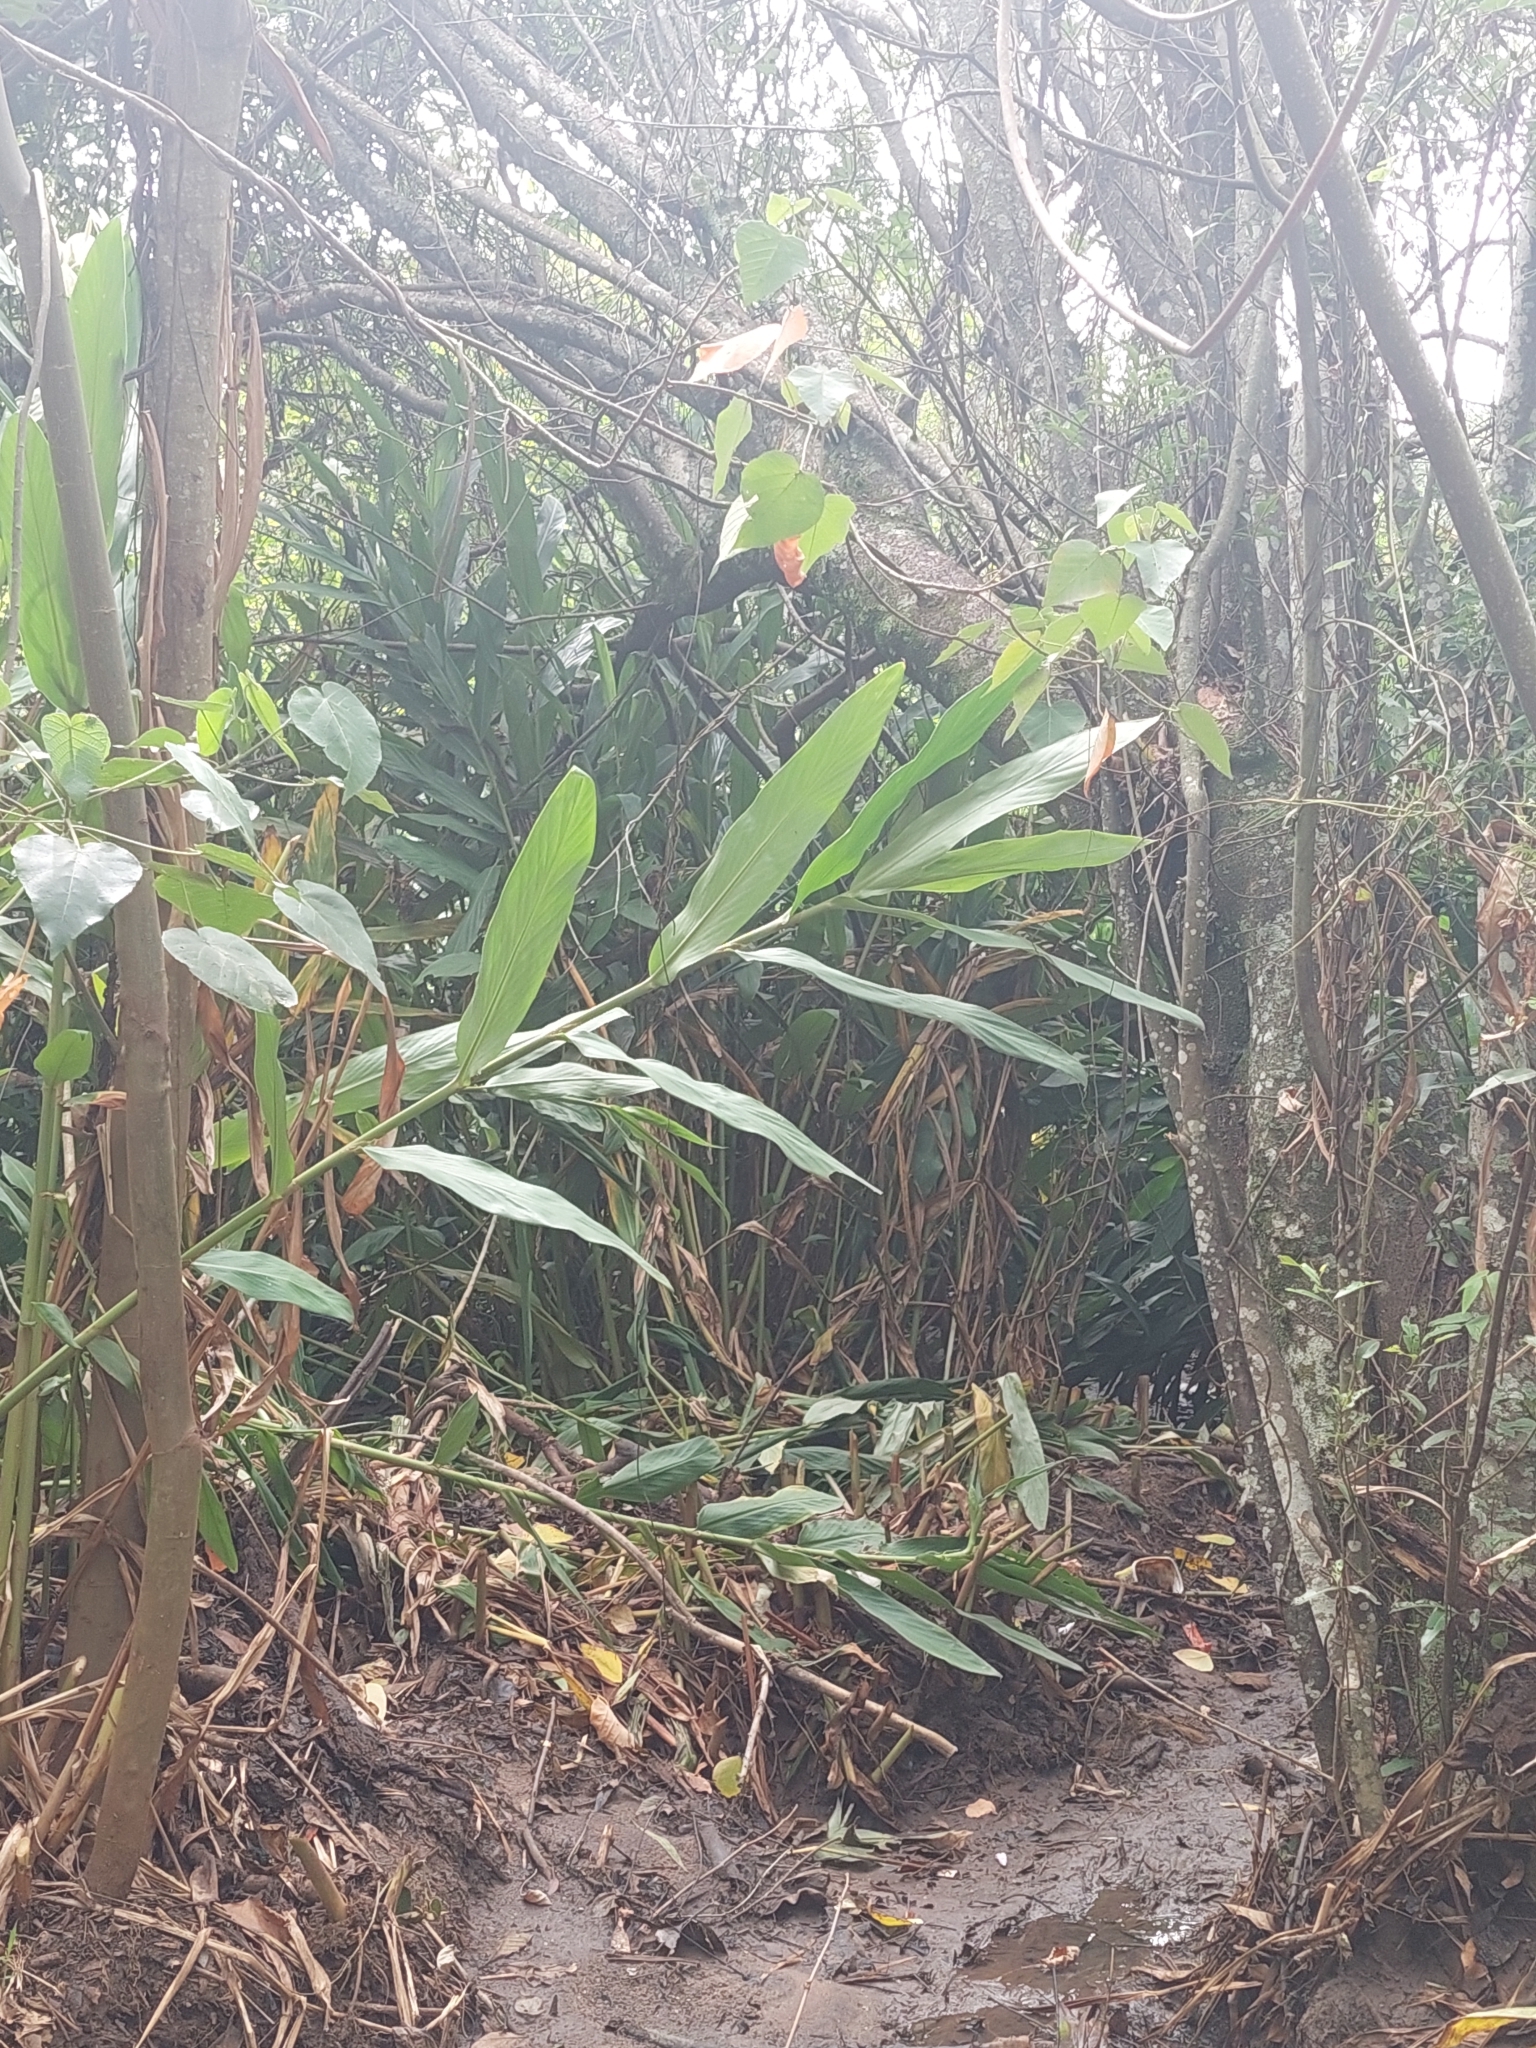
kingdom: Plantae
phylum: Tracheophyta
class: Liliopsida
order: Zingiberales
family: Zingiberaceae
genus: Hedychium
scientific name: Hedychium coronarium
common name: White garland-lily
